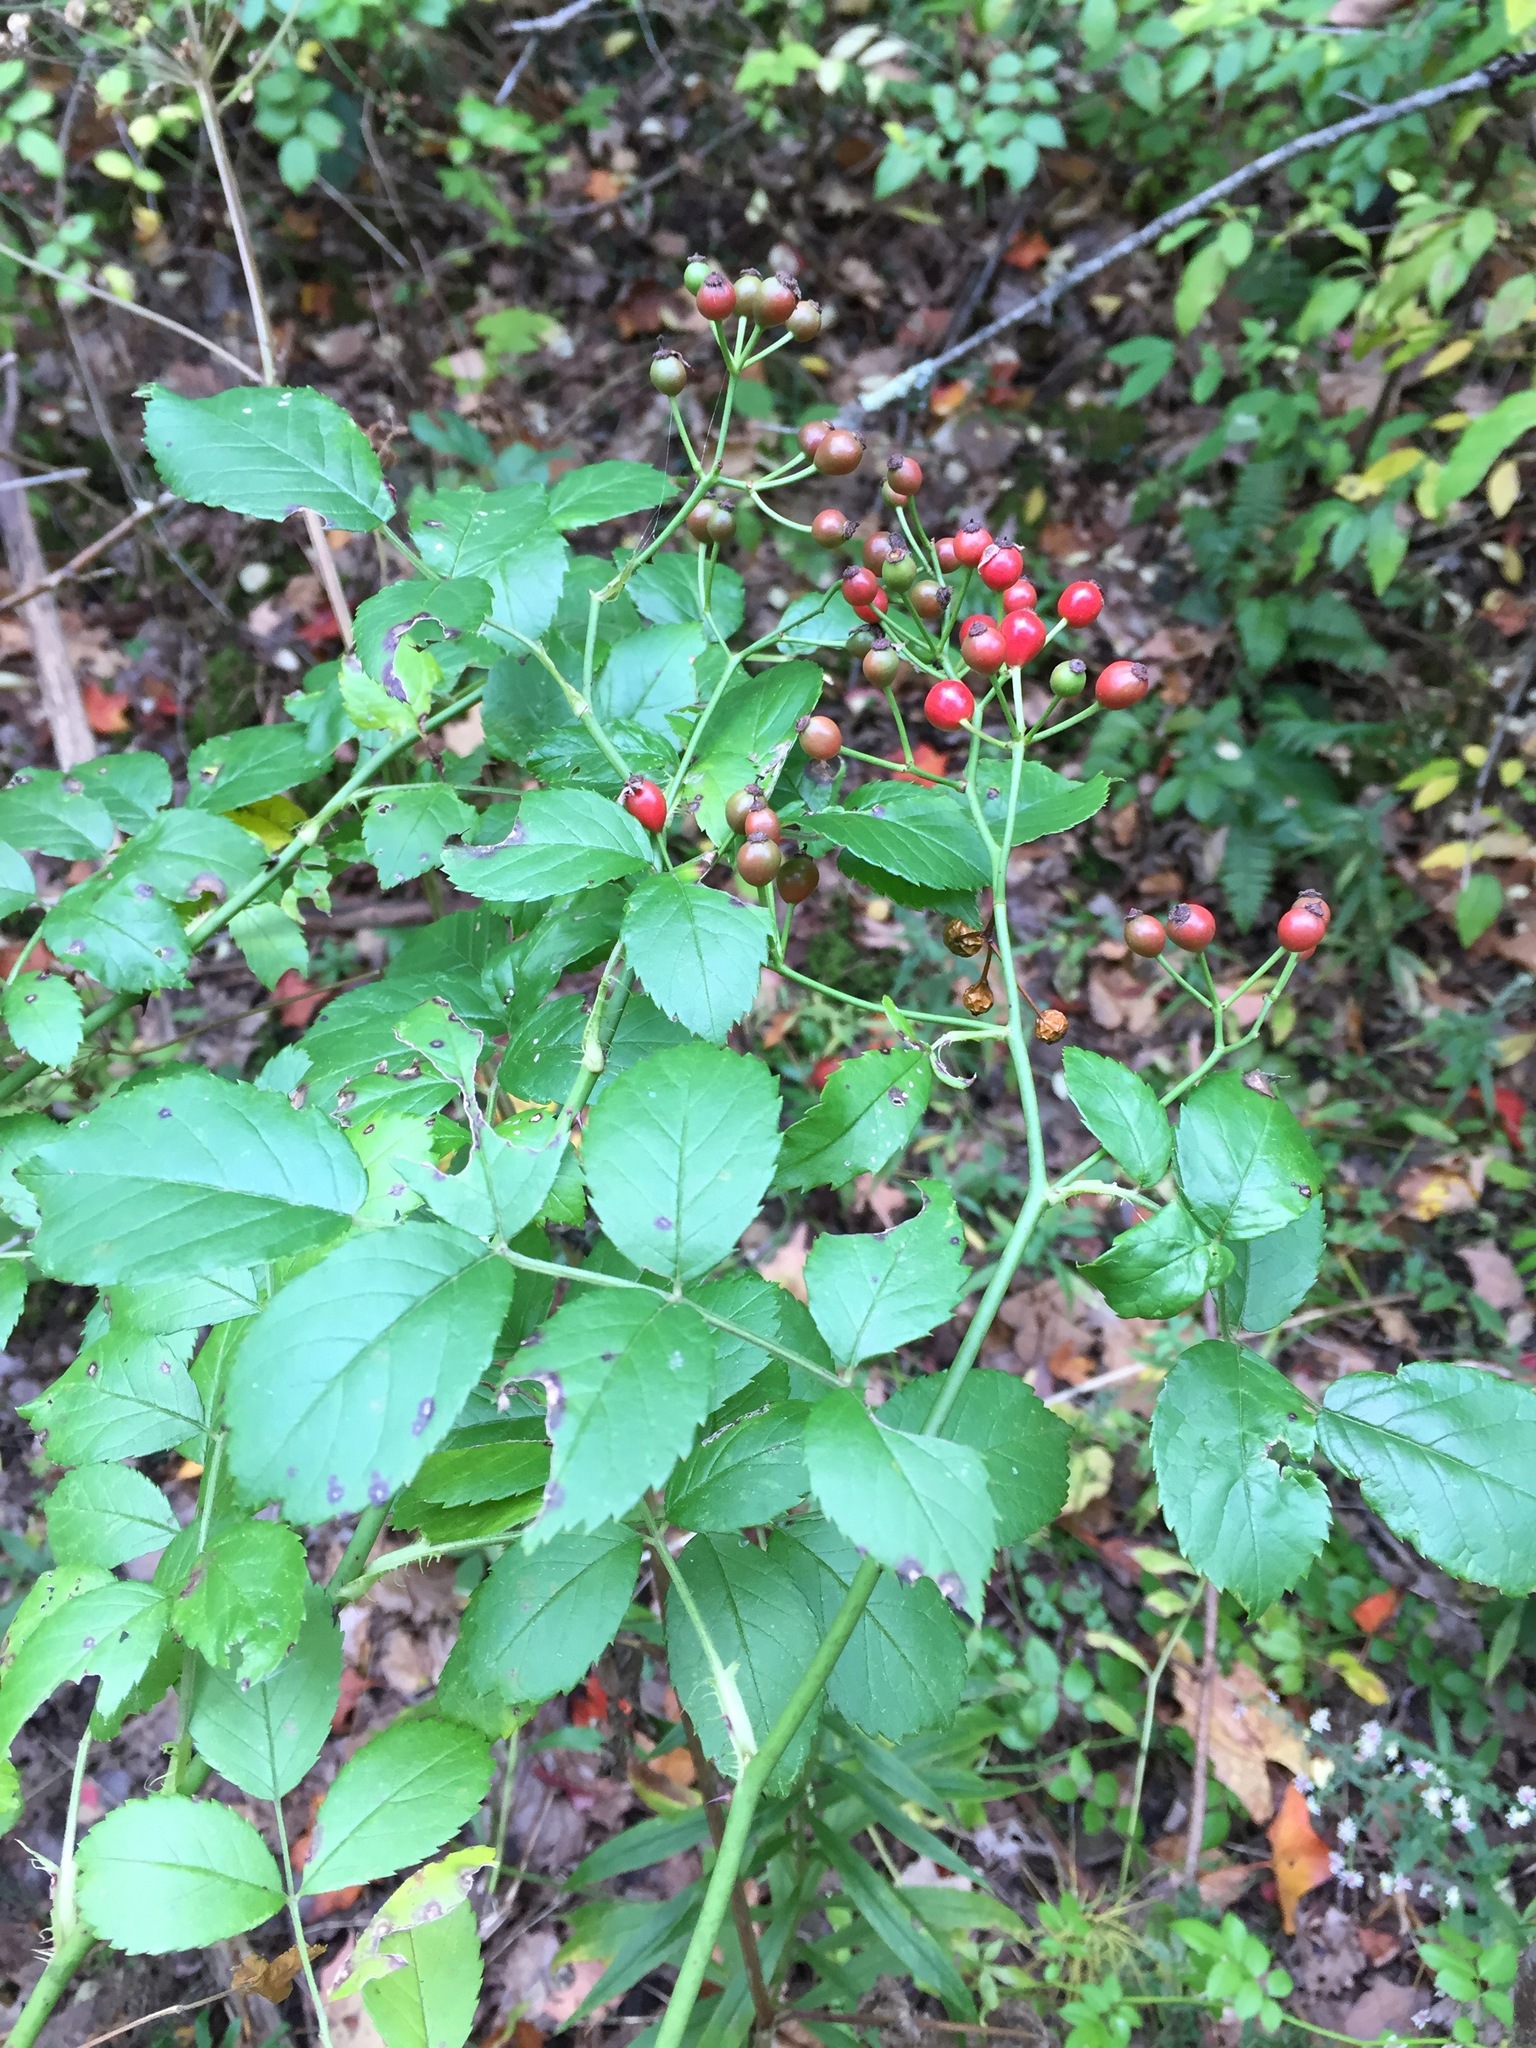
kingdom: Plantae
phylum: Tracheophyta
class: Magnoliopsida
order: Rosales
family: Rosaceae
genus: Rosa
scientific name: Rosa multiflora
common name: Multiflora rose
